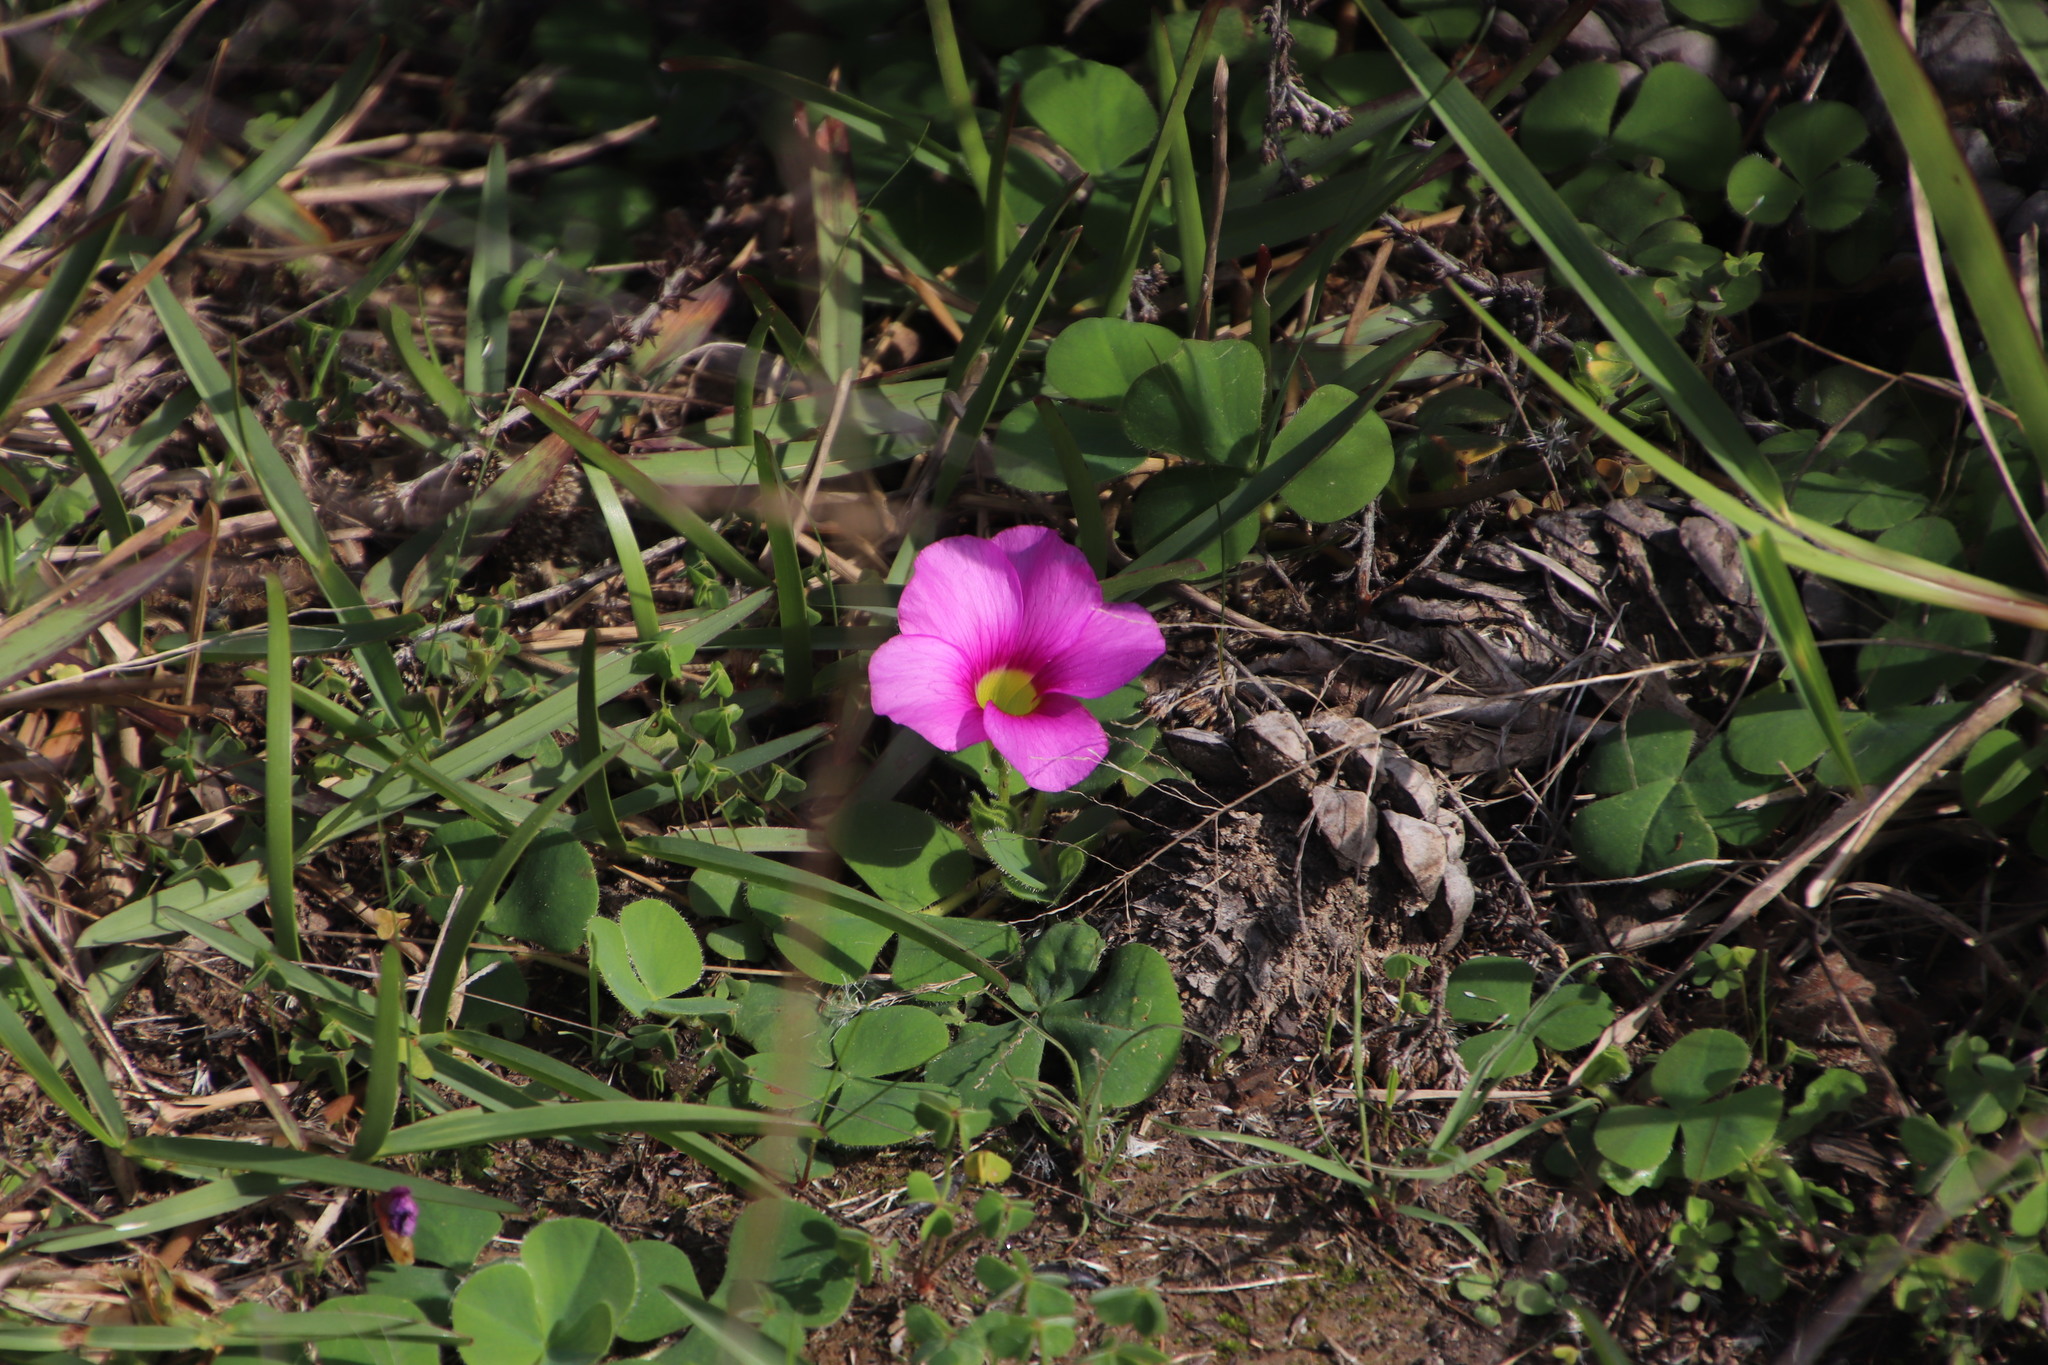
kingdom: Plantae
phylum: Tracheophyta
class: Magnoliopsida
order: Oxalidales
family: Oxalidaceae
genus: Oxalis
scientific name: Oxalis purpurea
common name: Purple woodsorrel
